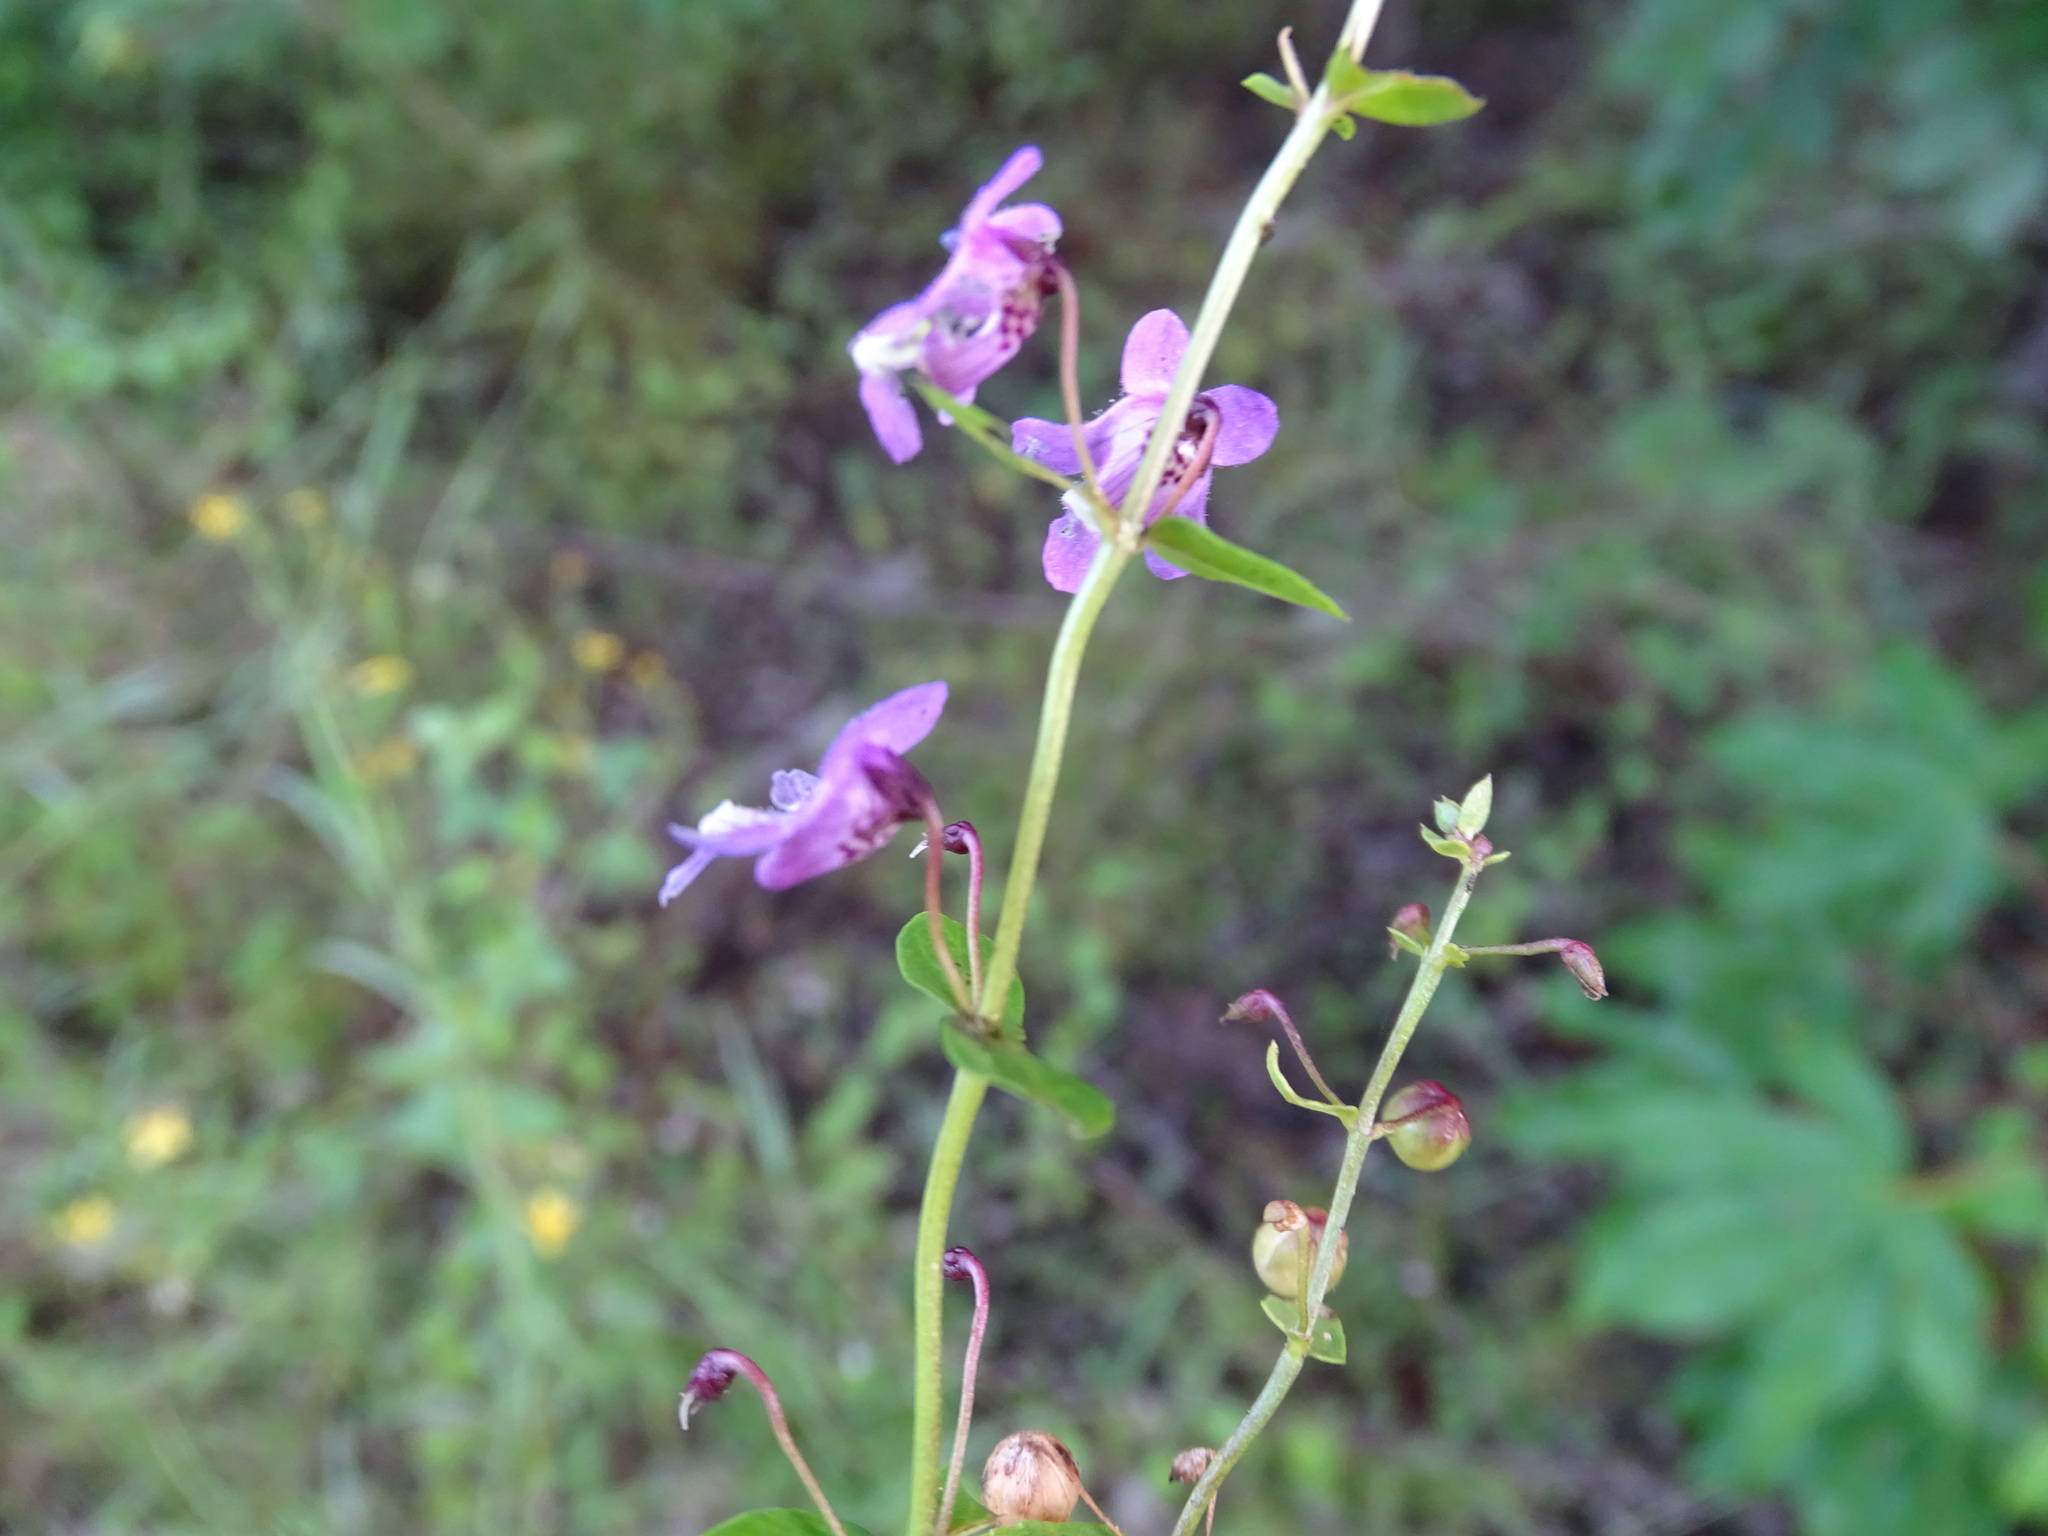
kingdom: Plantae
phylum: Tracheophyta
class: Magnoliopsida
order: Lamiales
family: Plantaginaceae
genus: Angelonia
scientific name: Angelonia angustifolia
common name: Narrowleaf angelon
